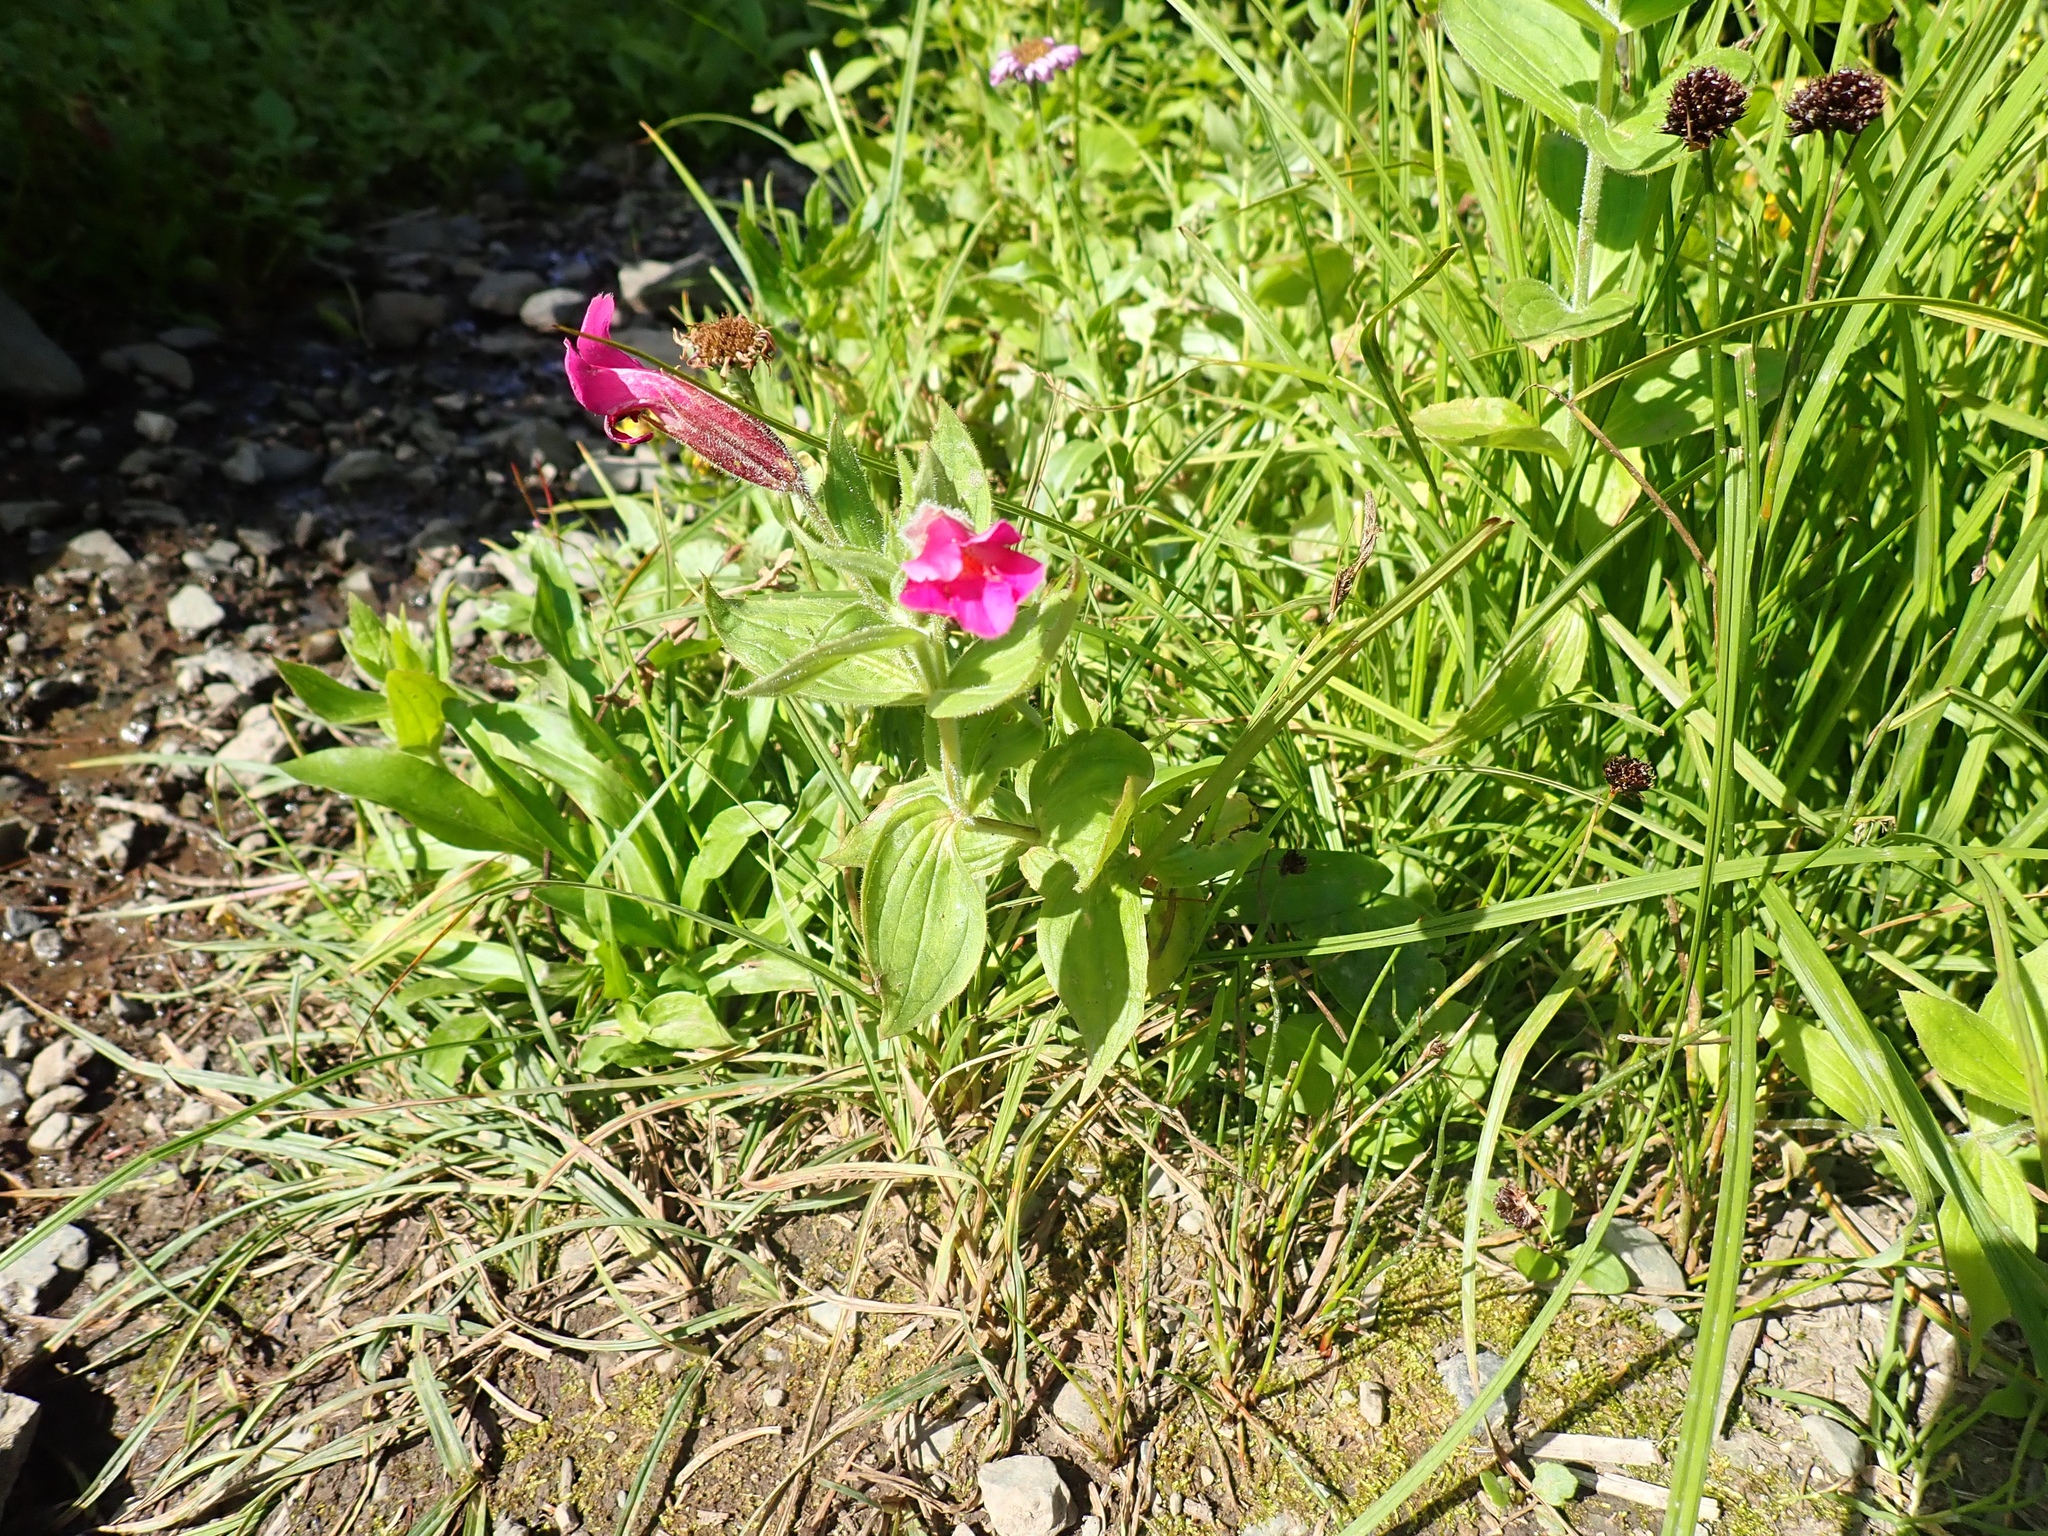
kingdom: Plantae
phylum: Tracheophyta
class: Magnoliopsida
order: Lamiales
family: Phrymaceae
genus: Erythranthe
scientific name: Erythranthe lewisii
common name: Lewis's monkey-flower
